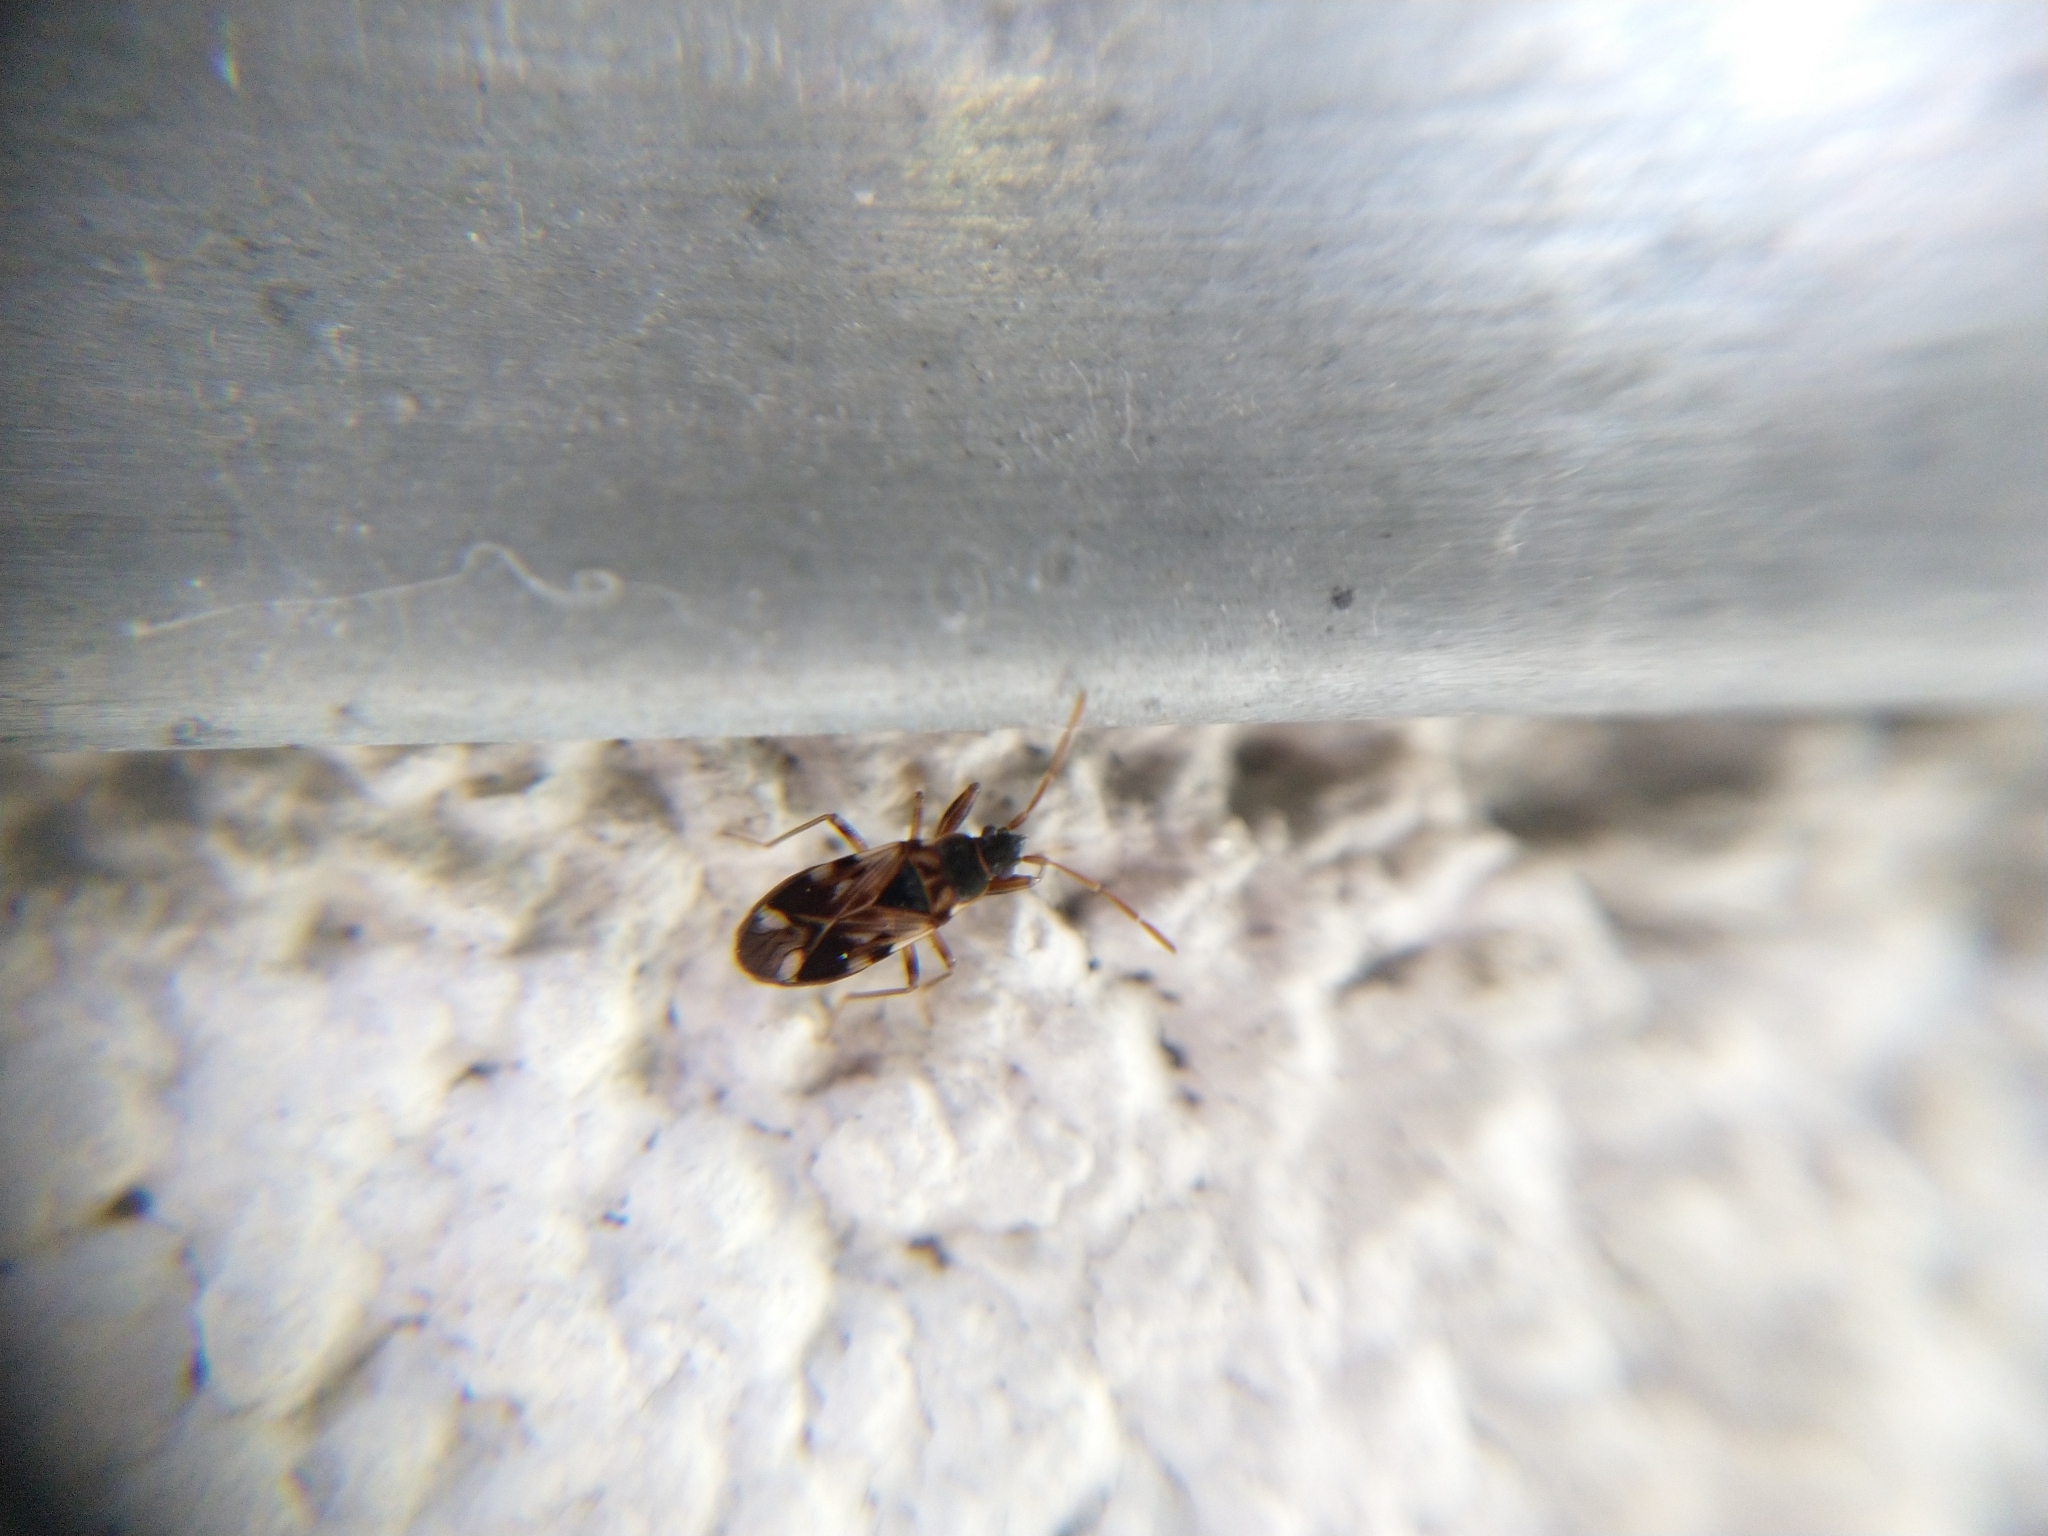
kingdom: Animalia
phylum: Arthropoda
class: Insecta
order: Hemiptera
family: Rhyparochromidae
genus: Scolopostethus
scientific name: Scolopostethus pictus
